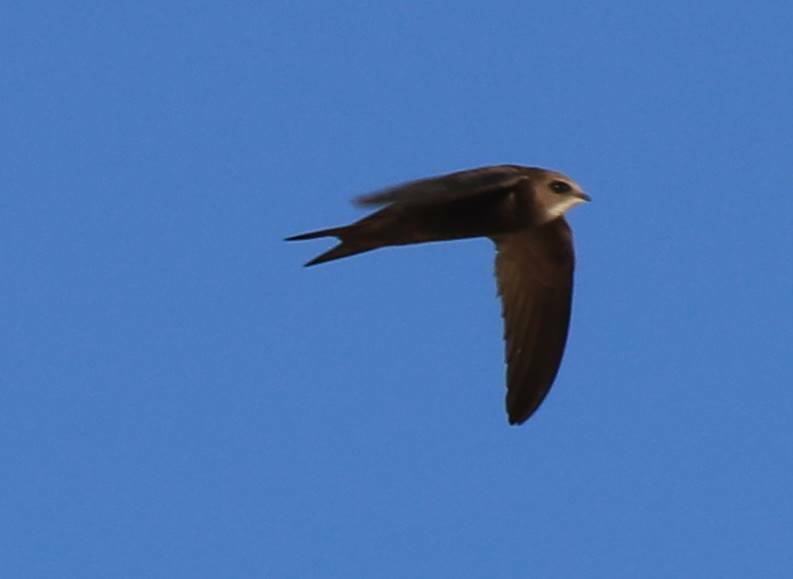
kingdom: Animalia
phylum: Chordata
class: Aves
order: Apodiformes
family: Apodidae
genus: Apus
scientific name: Apus pallidus
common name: Pallid swift
